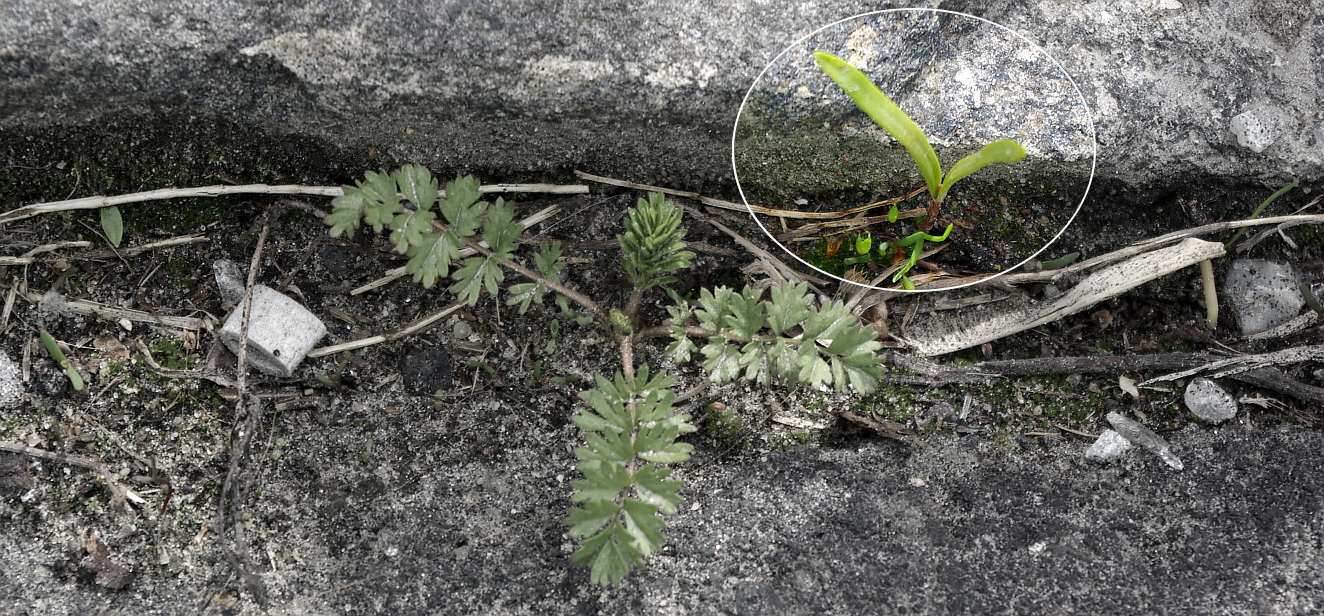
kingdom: Plantae
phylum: Tracheophyta
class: Magnoliopsida
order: Sapindales
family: Sapindaceae
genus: Acer
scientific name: Acer negundo
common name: Ashleaf maple
